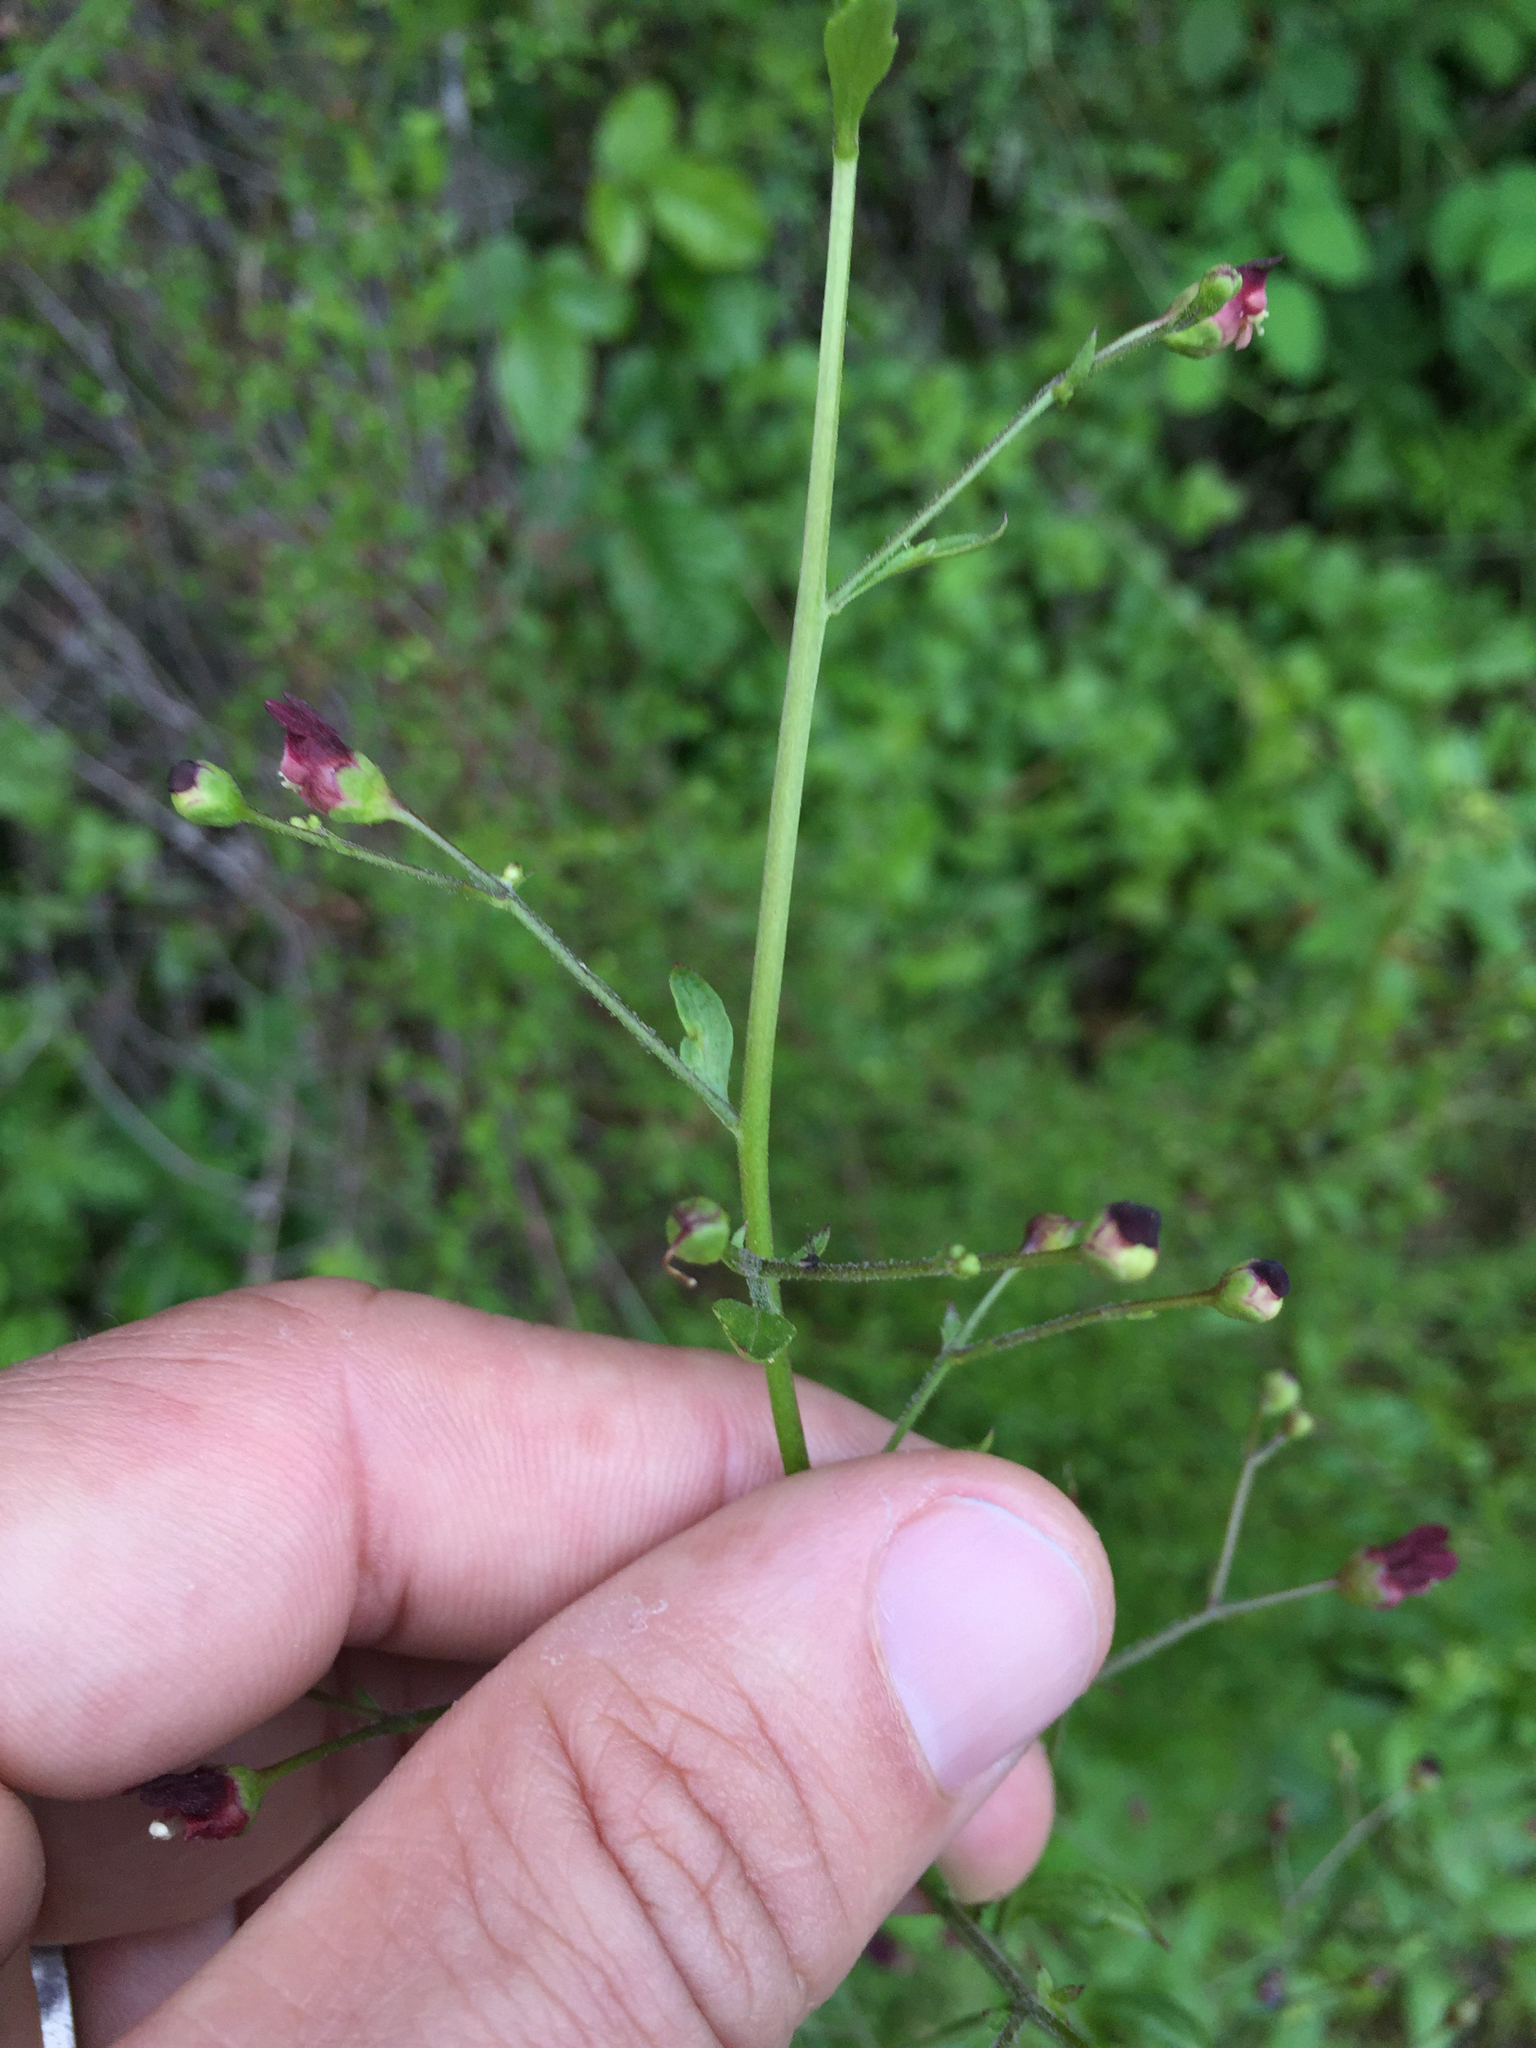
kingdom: Plantae
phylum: Tracheophyta
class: Magnoliopsida
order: Lamiales
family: Scrophulariaceae
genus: Scrophularia
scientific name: Scrophularia californica
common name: California figwort
